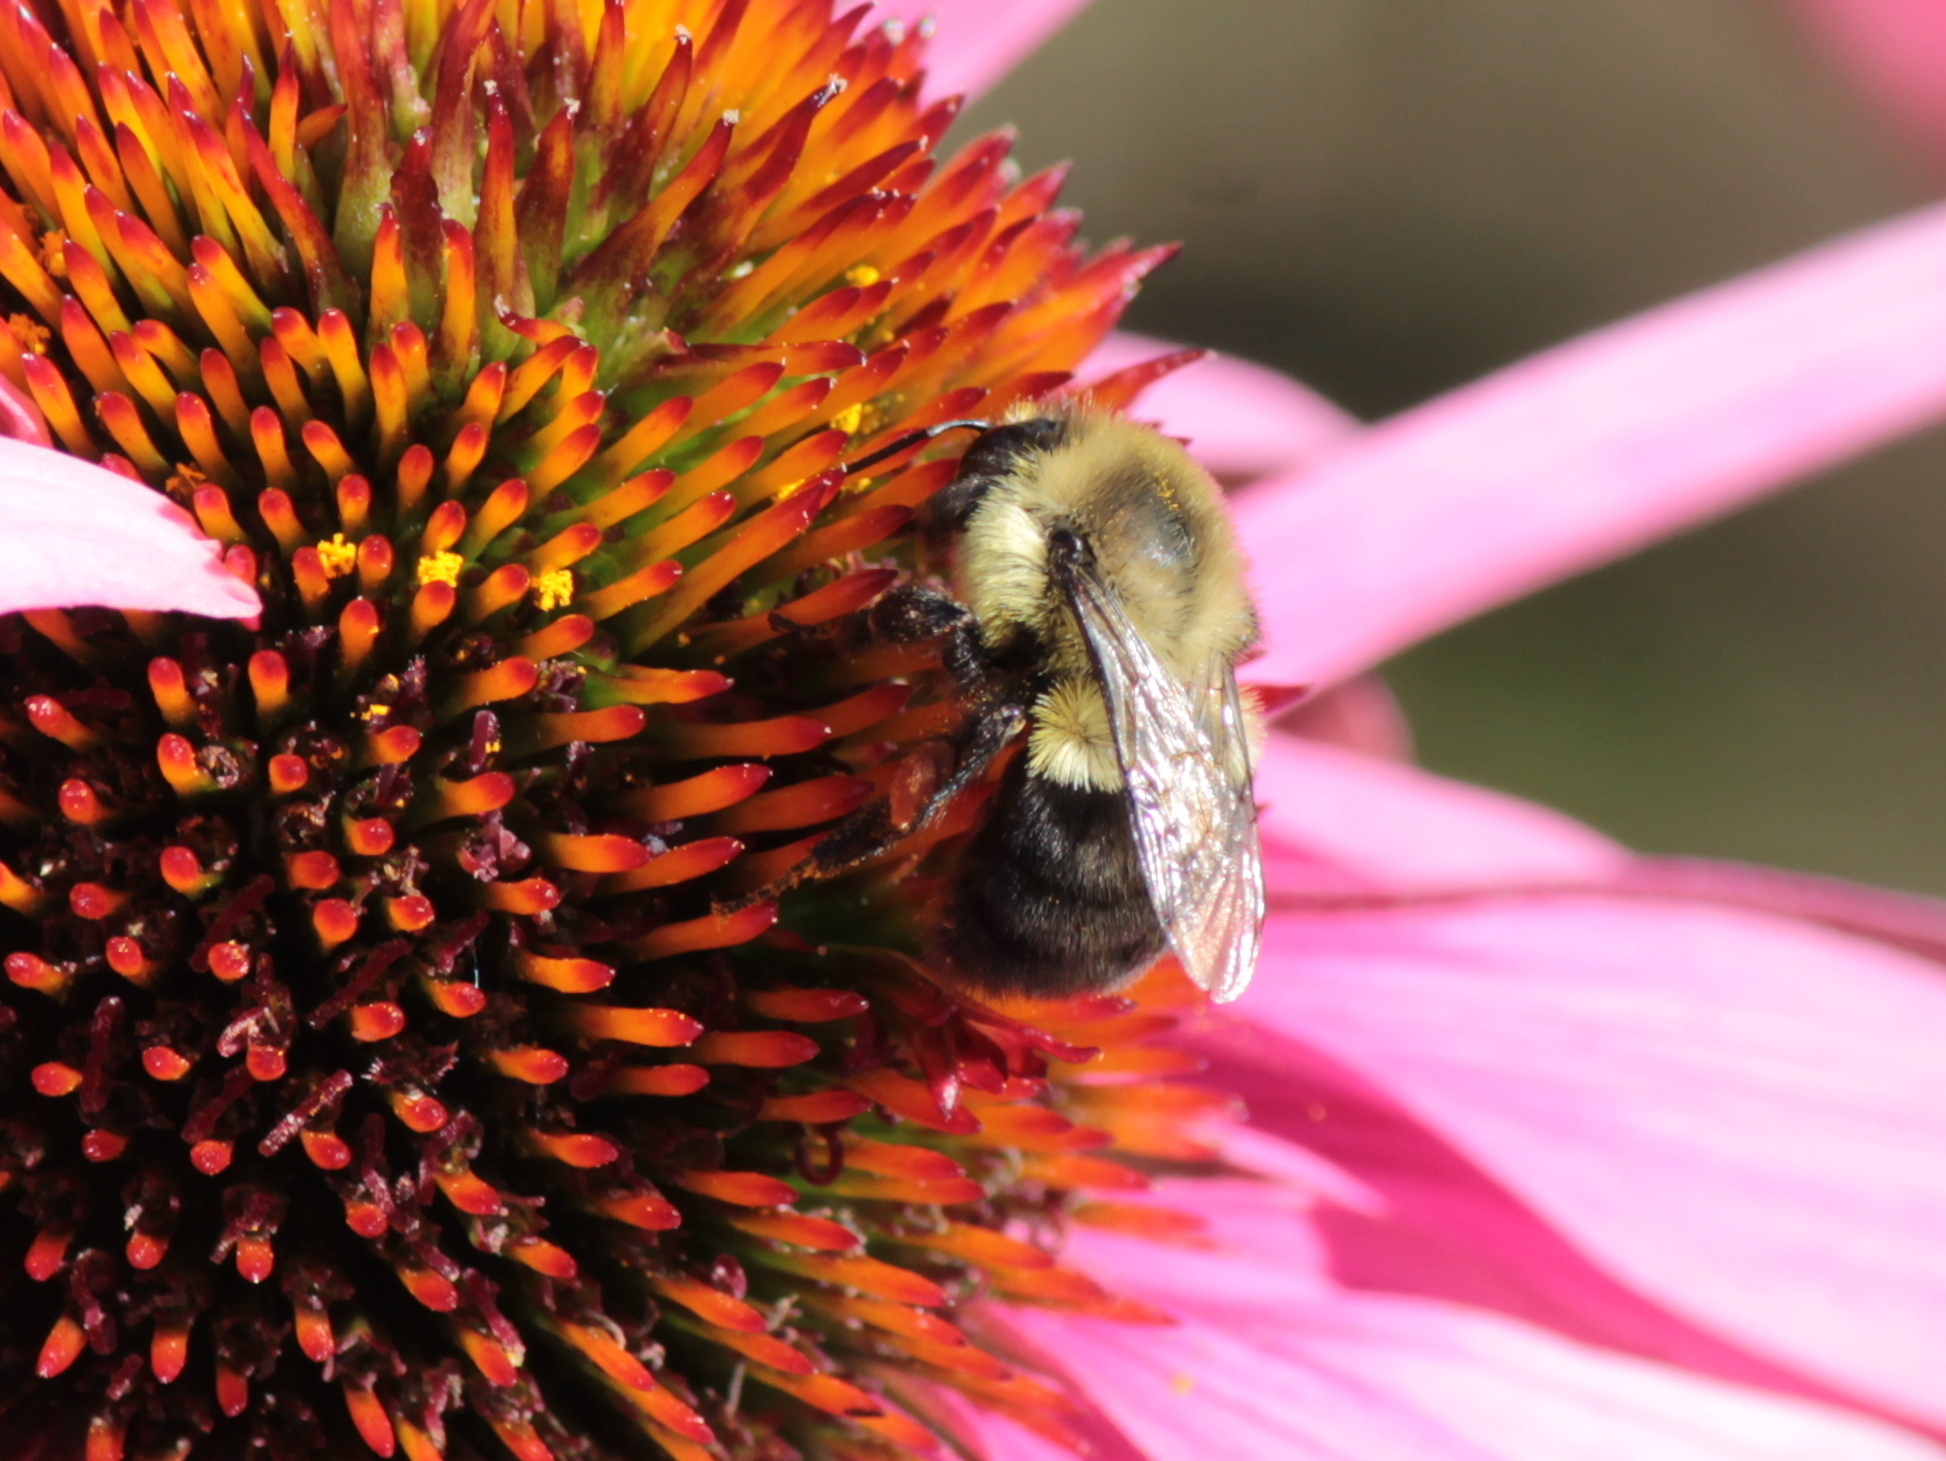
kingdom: Animalia
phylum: Arthropoda
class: Insecta
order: Hymenoptera
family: Apidae
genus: Bombus
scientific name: Bombus impatiens
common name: Common eastern bumble bee
